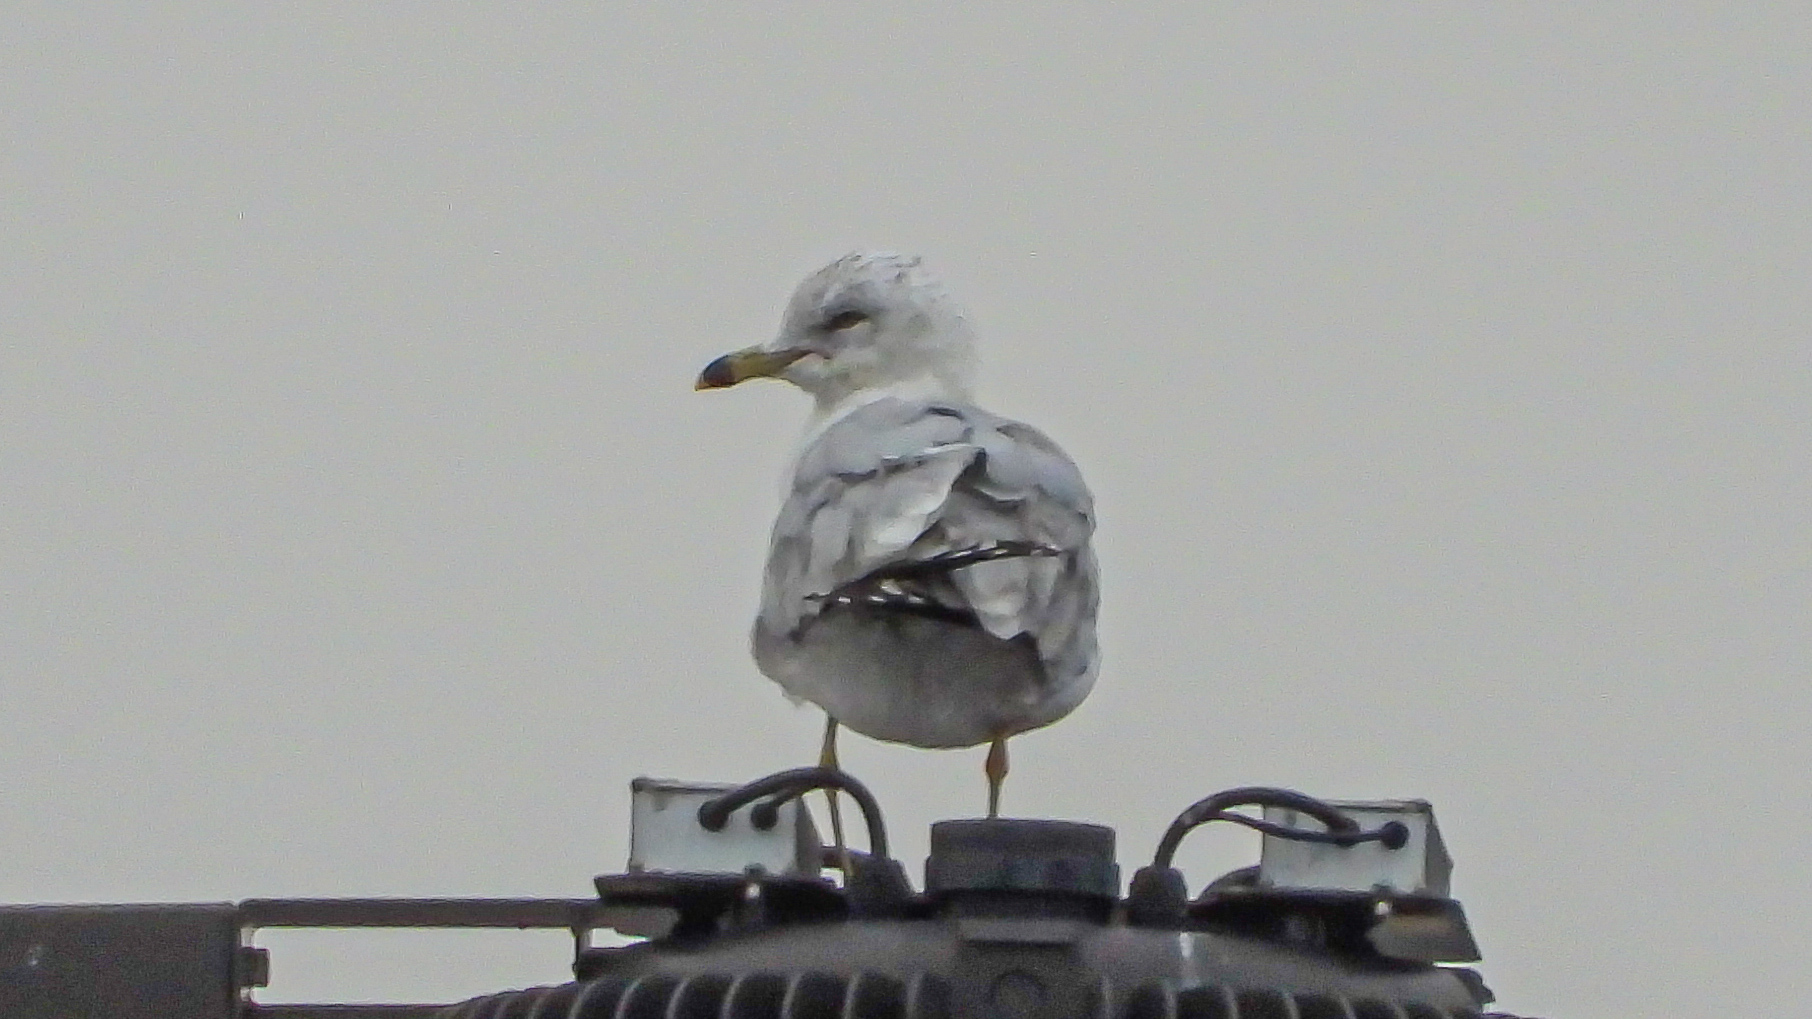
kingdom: Animalia
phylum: Chordata
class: Aves
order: Charadriiformes
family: Laridae
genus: Larus
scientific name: Larus delawarensis
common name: Ring-billed gull
